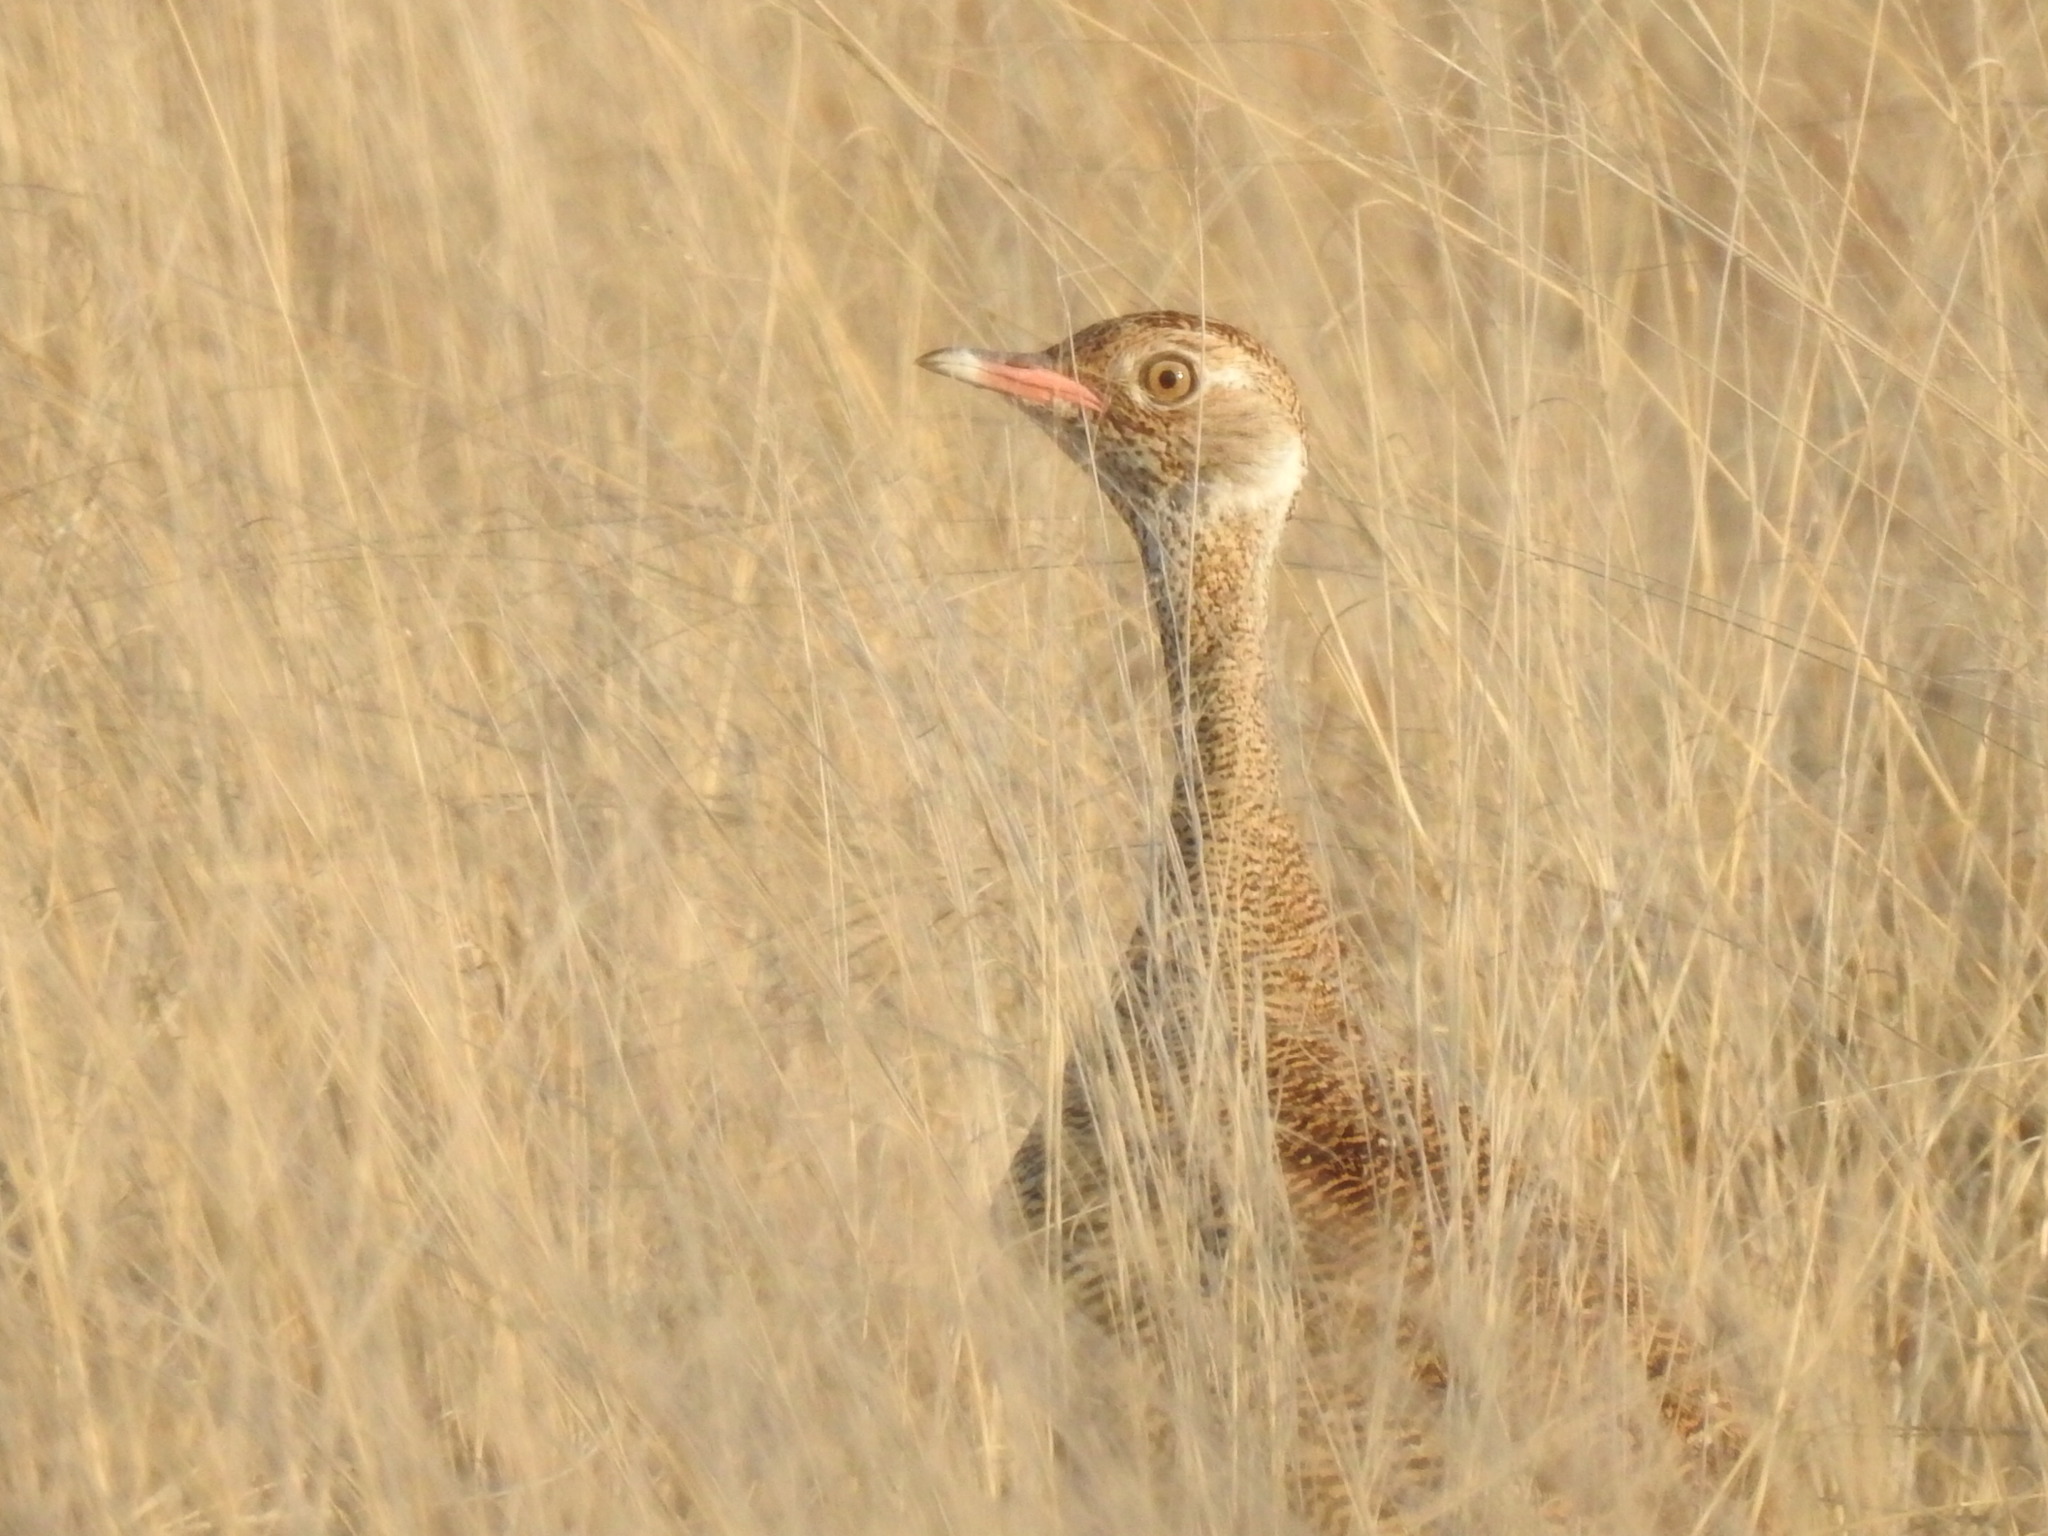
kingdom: Animalia
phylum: Chordata
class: Aves
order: Otidiformes
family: Otididae
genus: Afrotis
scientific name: Afrotis afraoides
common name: Northern black korhaan
